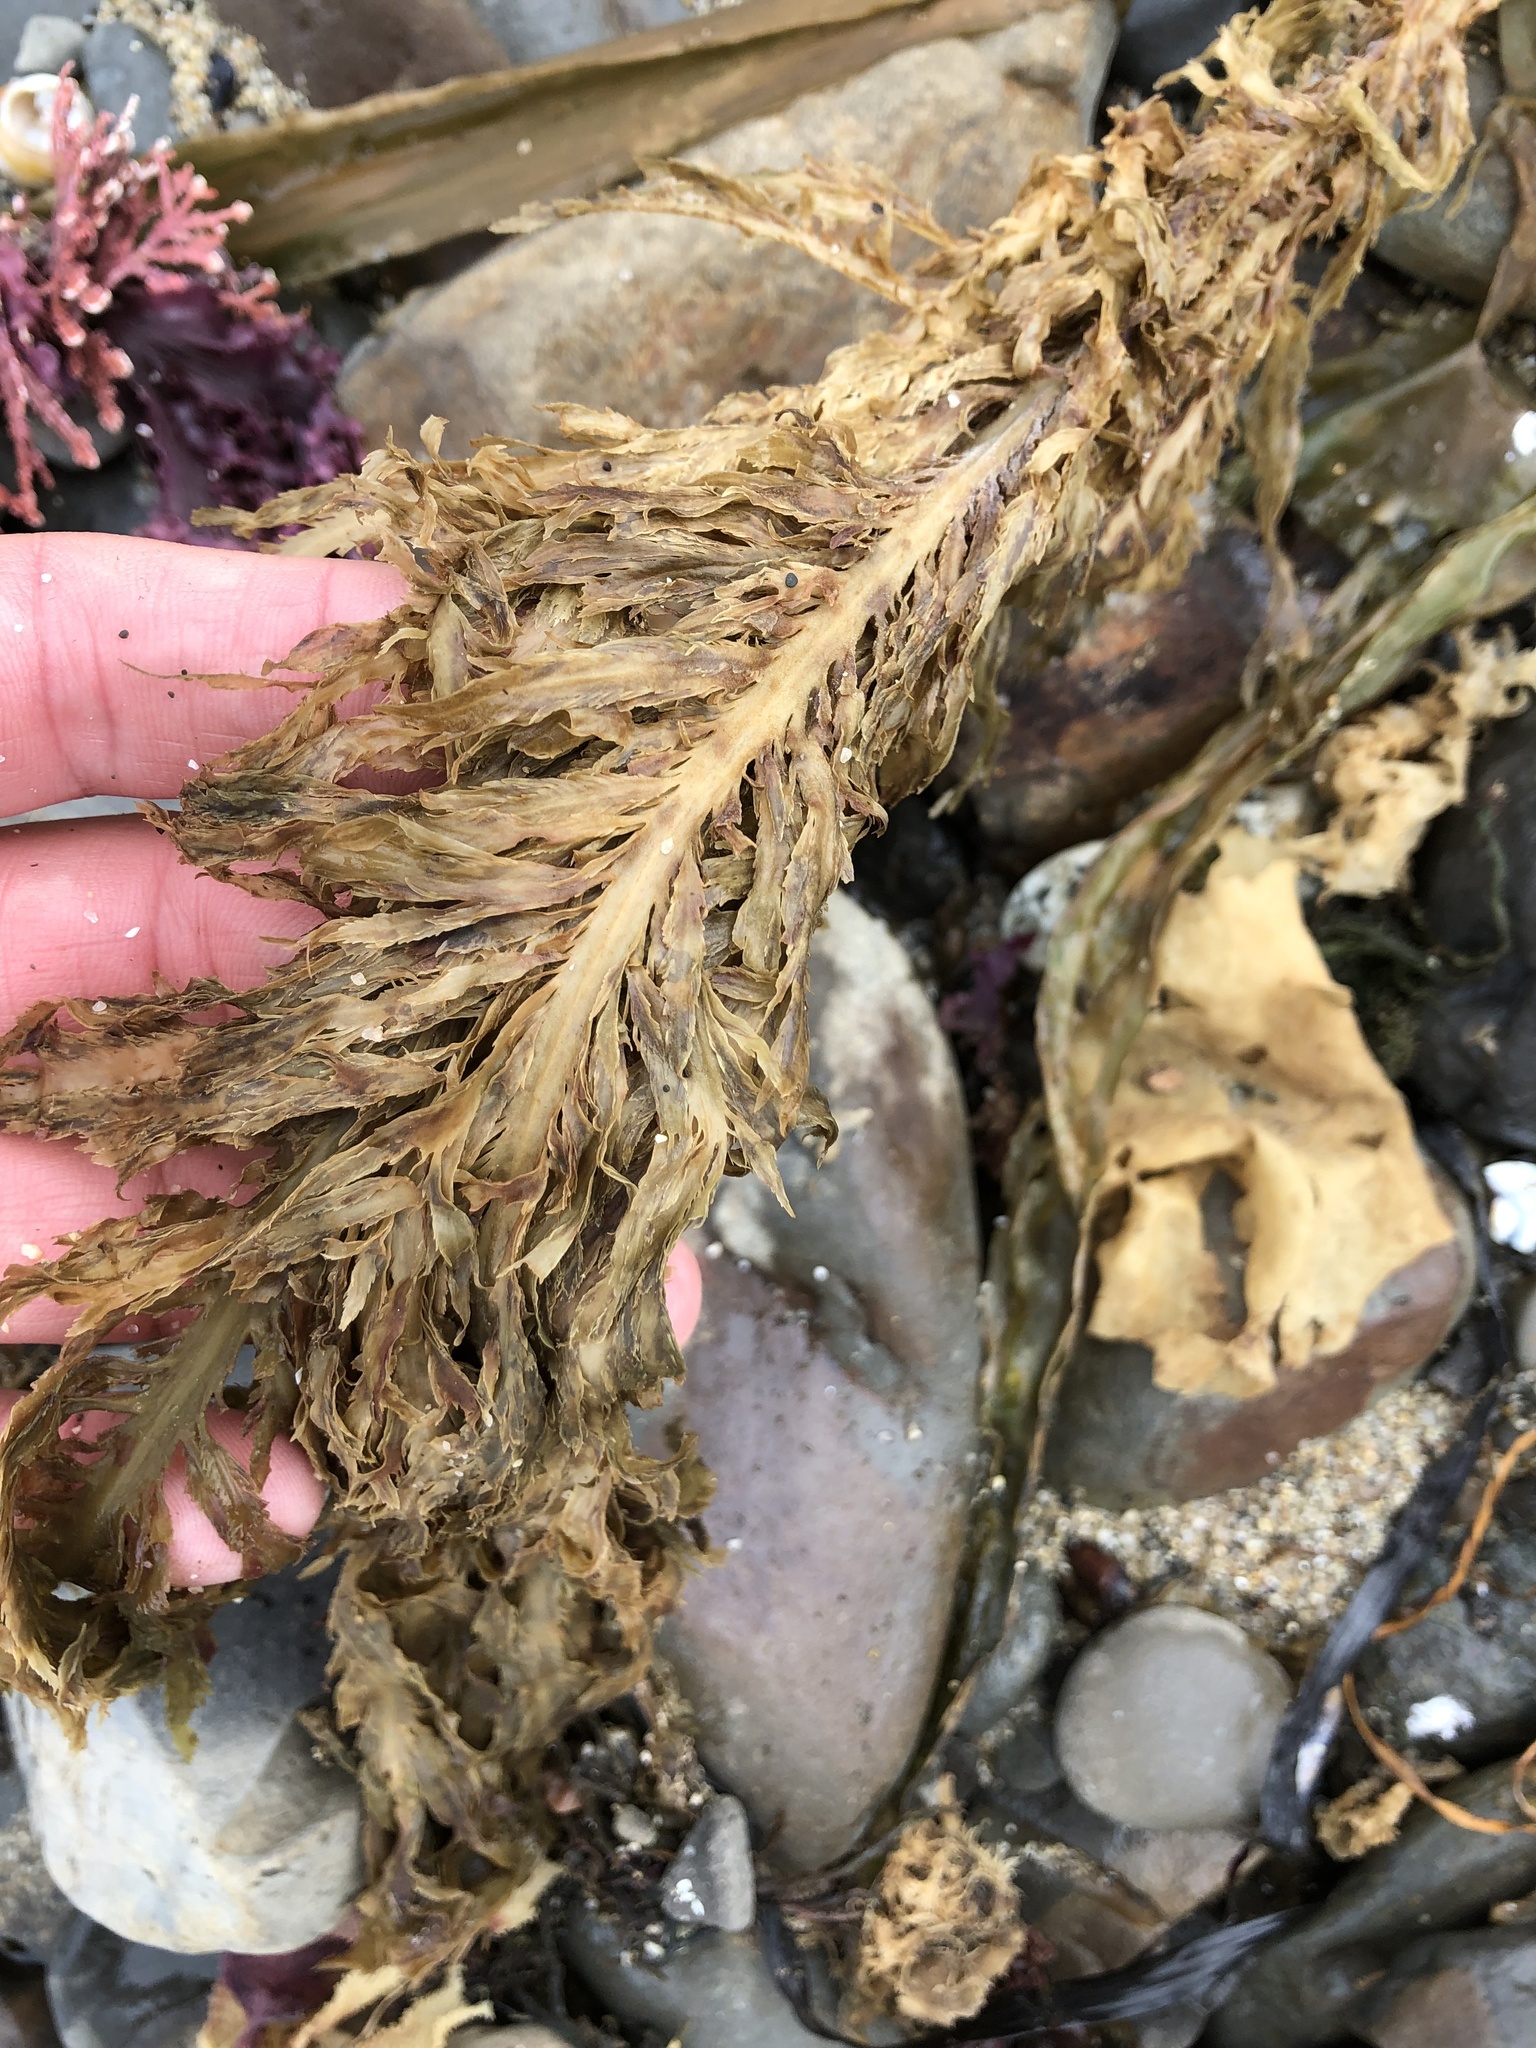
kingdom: Chromista
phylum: Ochrophyta
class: Phaeophyceae
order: Desmarestiales
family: Desmarestiaceae
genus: Desmarestia
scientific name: Desmarestia ligulata
